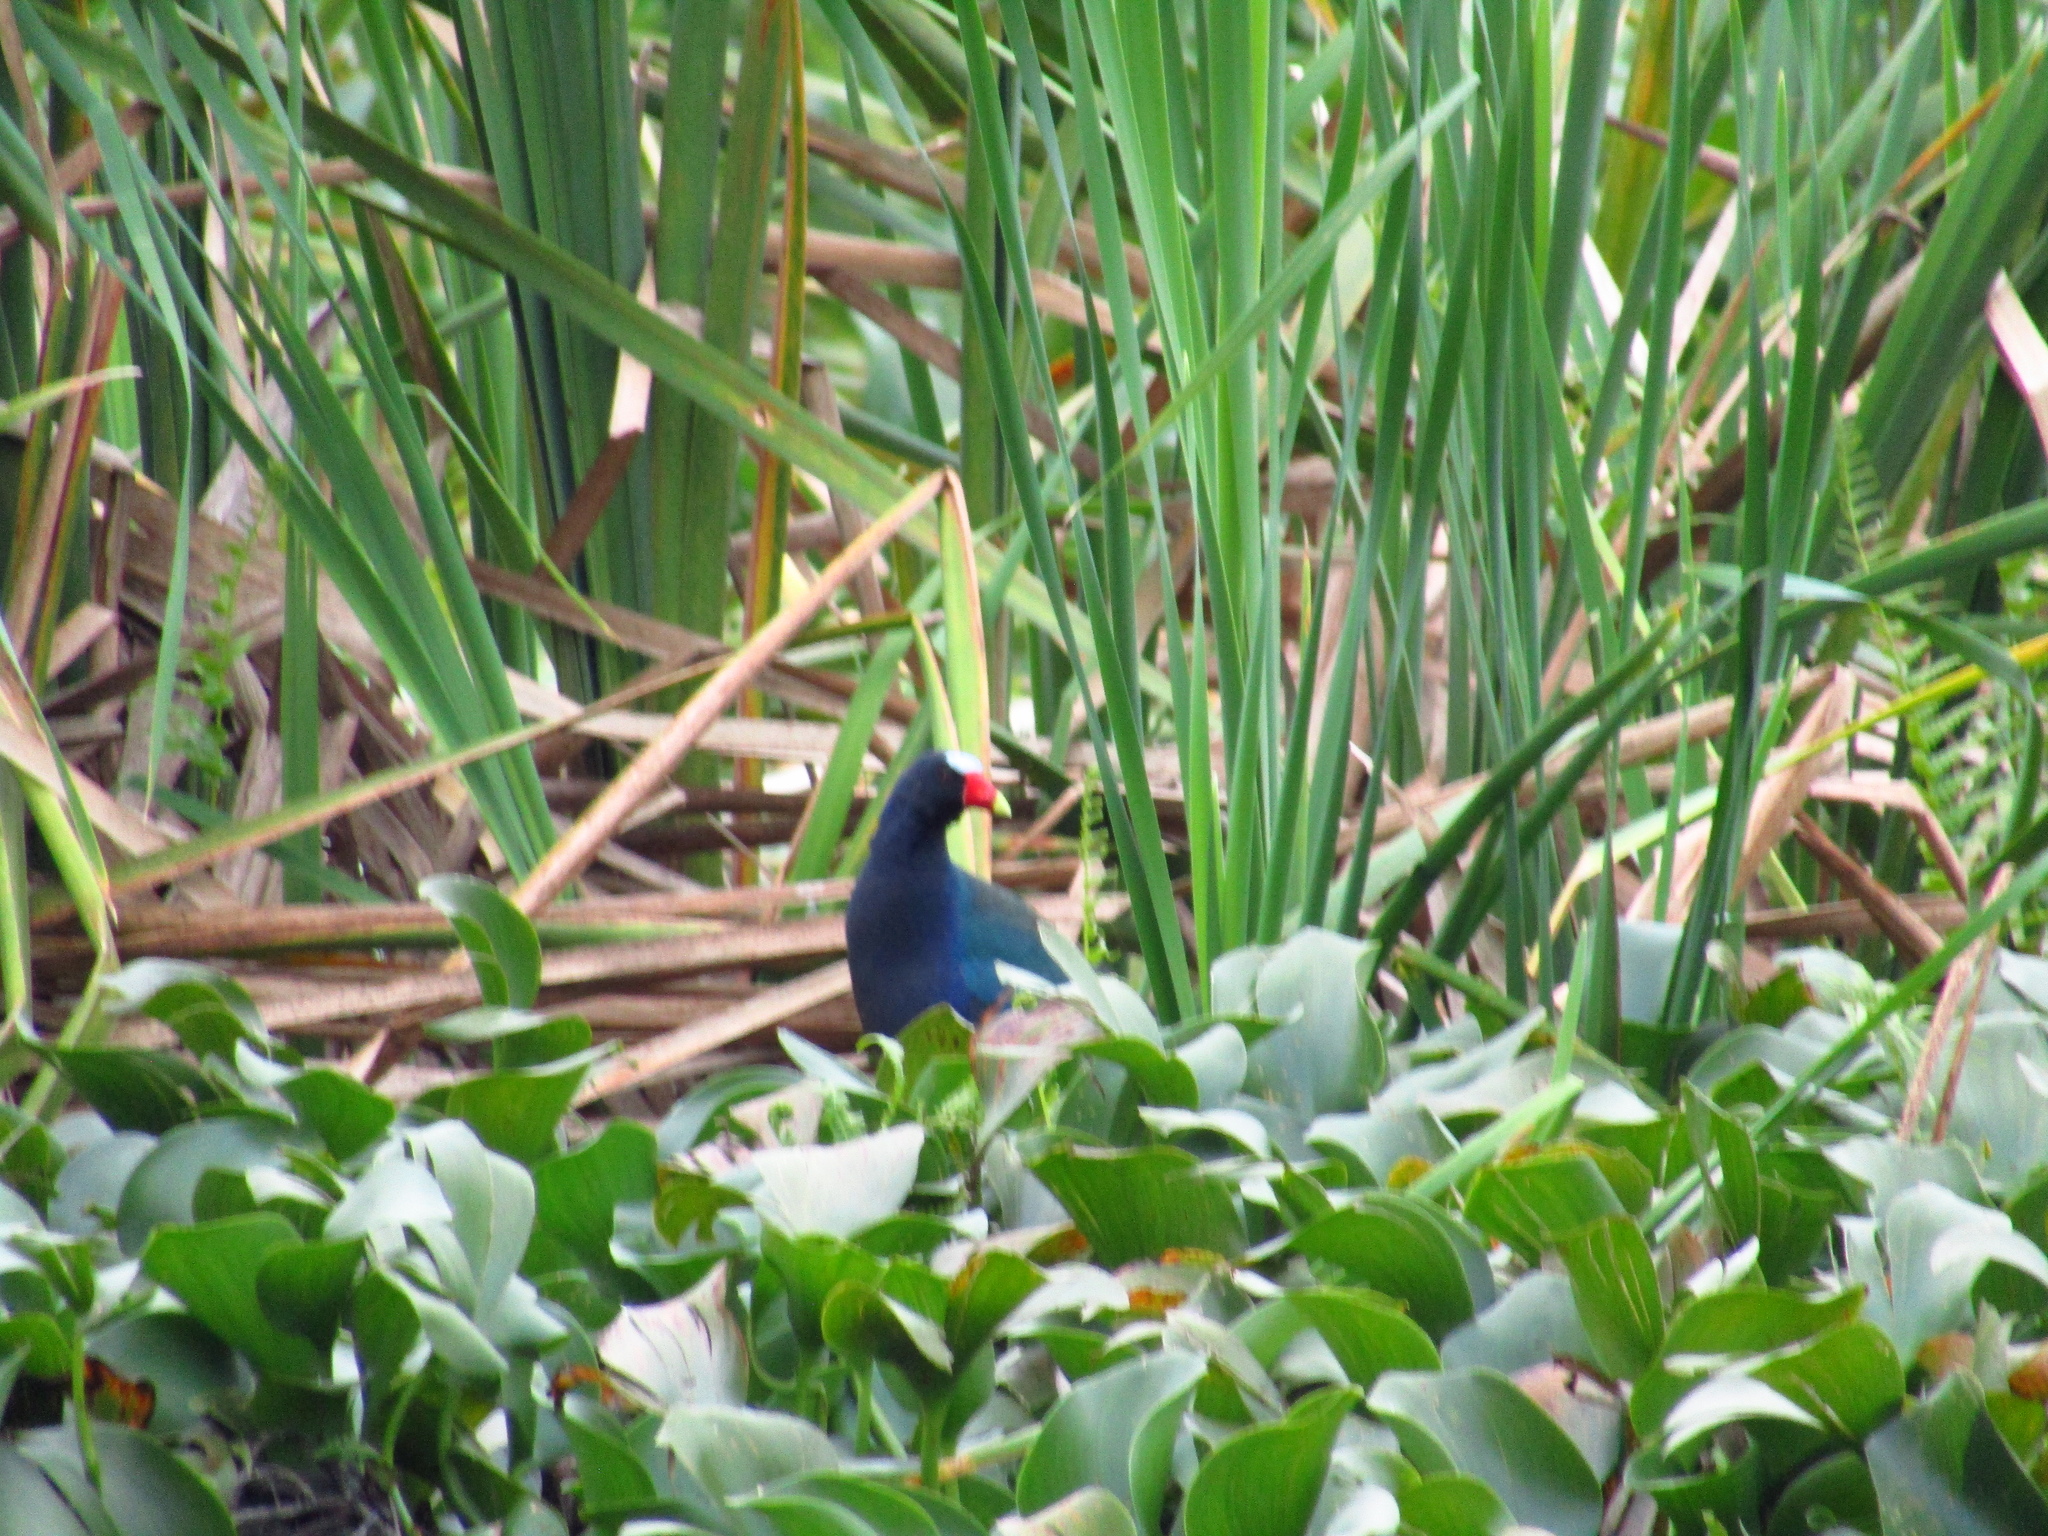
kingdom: Animalia
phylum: Chordata
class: Aves
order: Gruiformes
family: Rallidae
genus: Porphyrio
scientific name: Porphyrio martinica
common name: Purple gallinule
